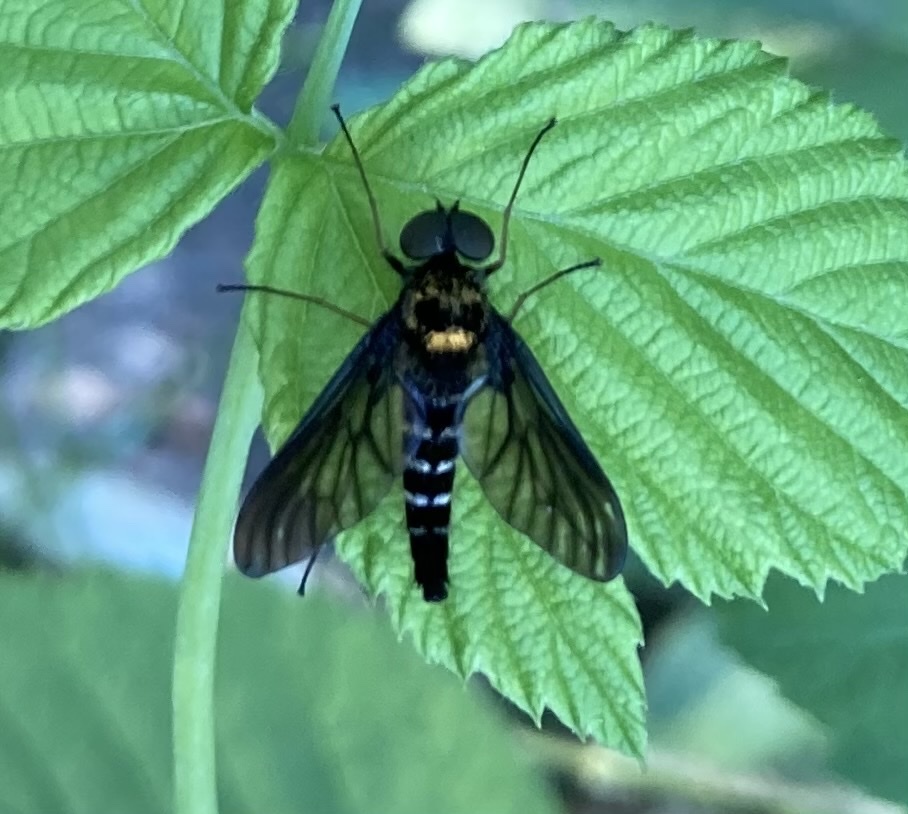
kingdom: Animalia
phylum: Arthropoda
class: Insecta
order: Diptera
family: Rhagionidae
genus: Chrysopilus
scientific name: Chrysopilus thoracicus
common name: Golden-backed snipe fly
